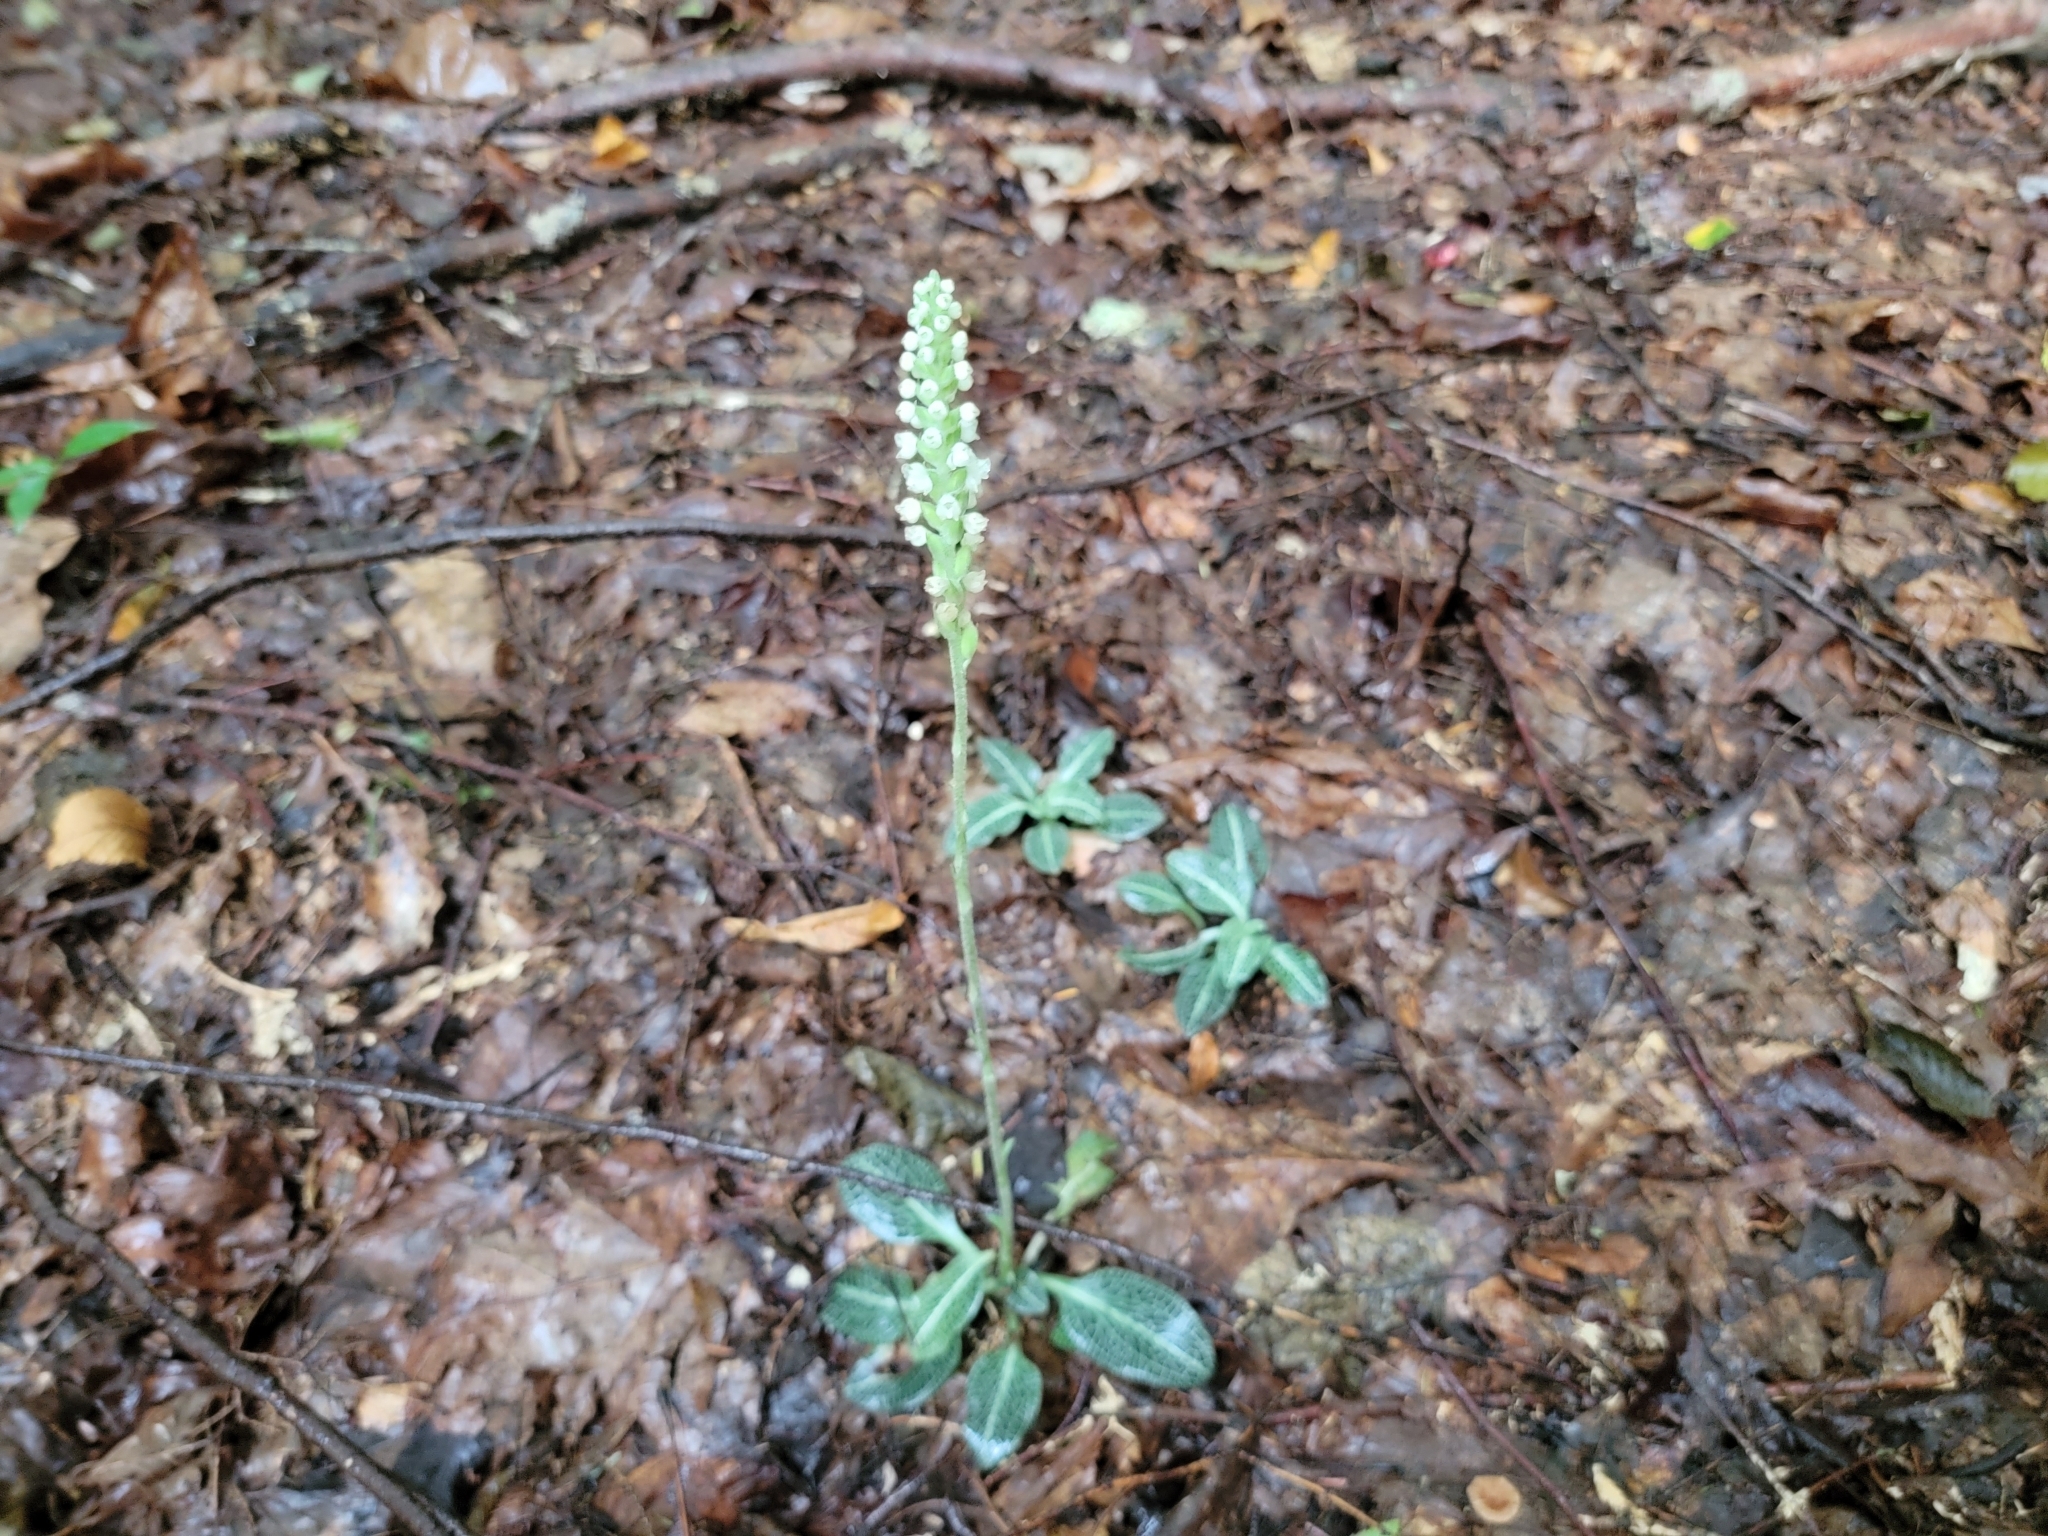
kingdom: Plantae
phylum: Tracheophyta
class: Liliopsida
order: Asparagales
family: Orchidaceae
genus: Goodyera
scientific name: Goodyera pubescens
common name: Downy rattlesnake-plantain
